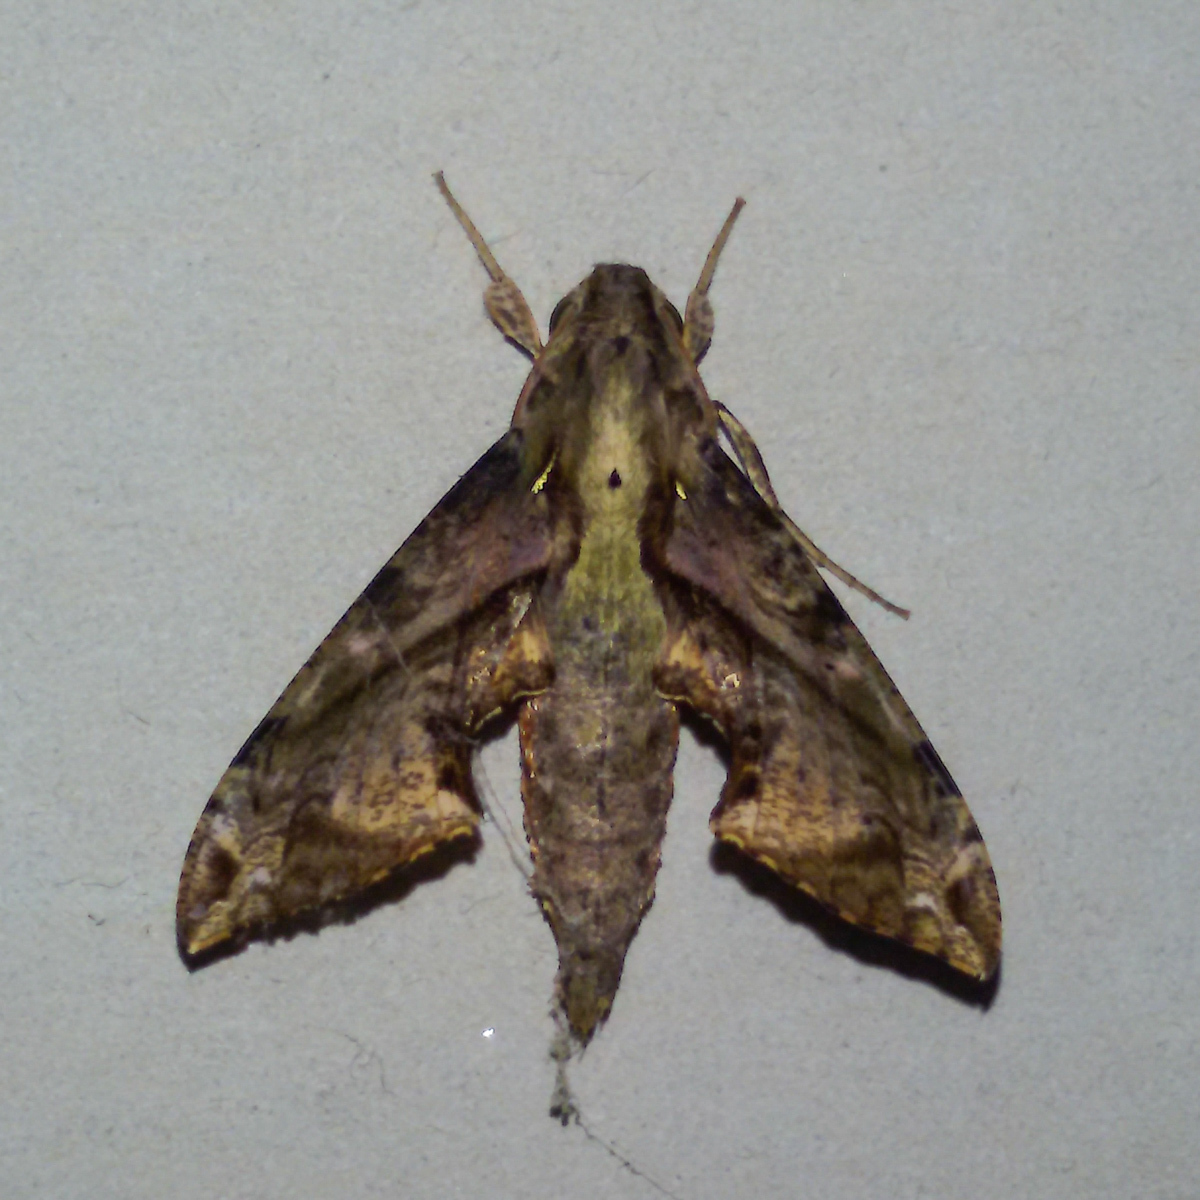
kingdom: Animalia
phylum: Arthropoda
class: Insecta
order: Lepidoptera
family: Sphingidae
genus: Eupanacra
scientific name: Eupanacra mydon
